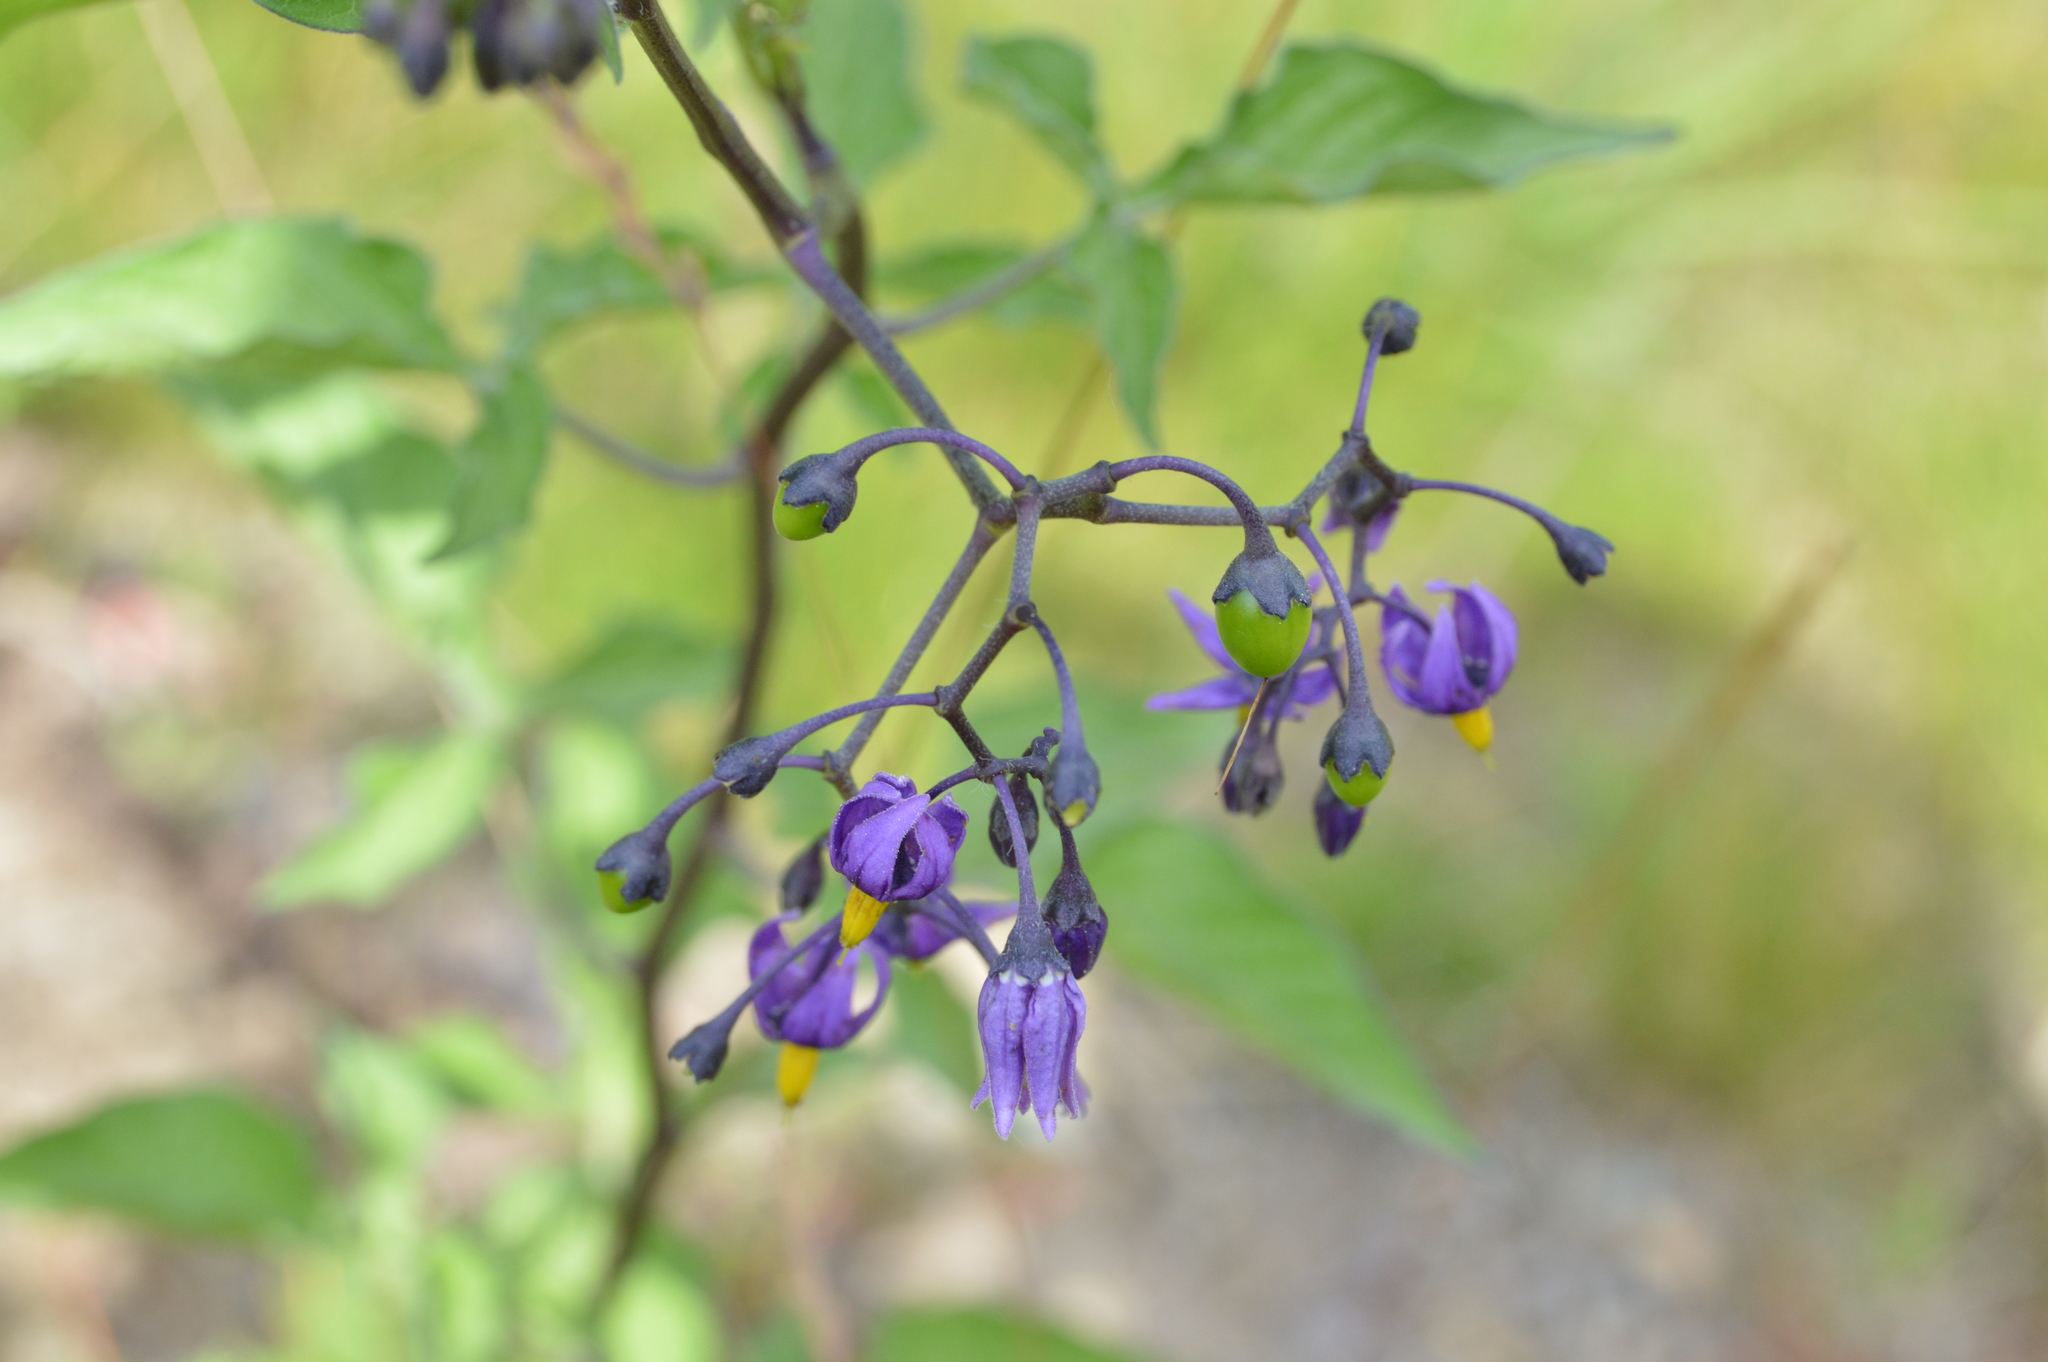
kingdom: Plantae
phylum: Tracheophyta
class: Magnoliopsida
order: Solanales
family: Solanaceae
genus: Solanum
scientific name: Solanum dulcamara
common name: Climbing nightshade
